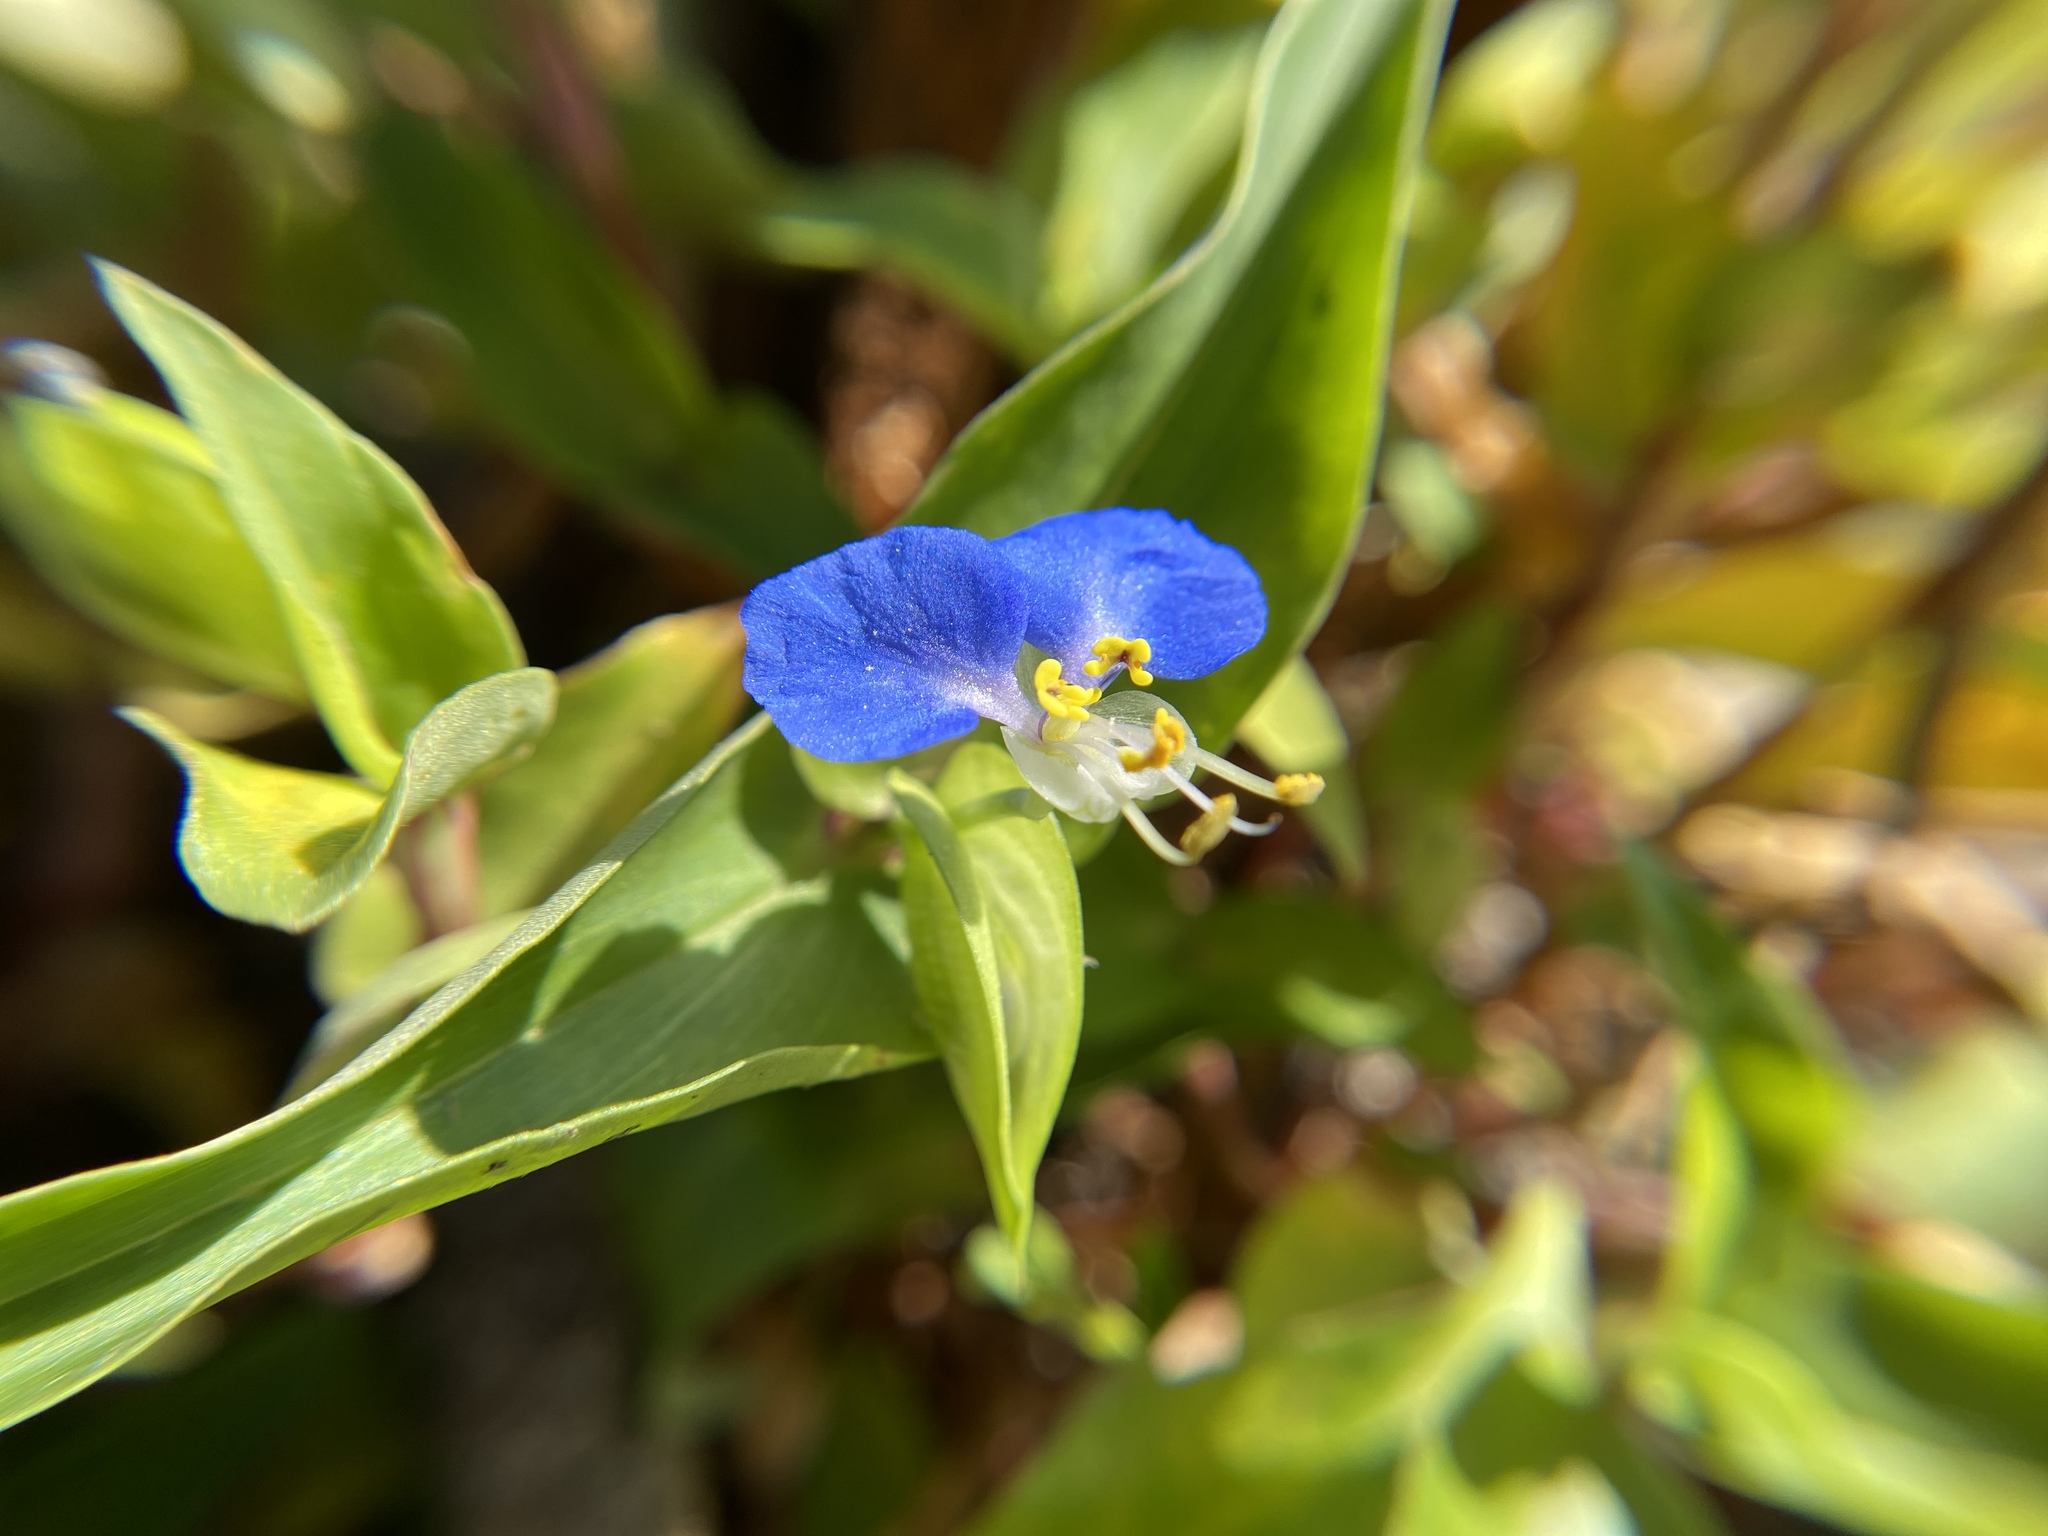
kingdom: Plantae
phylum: Tracheophyta
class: Liliopsida
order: Commelinales
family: Commelinaceae
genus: Commelina
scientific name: Commelina communis
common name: Asiatic dayflower
